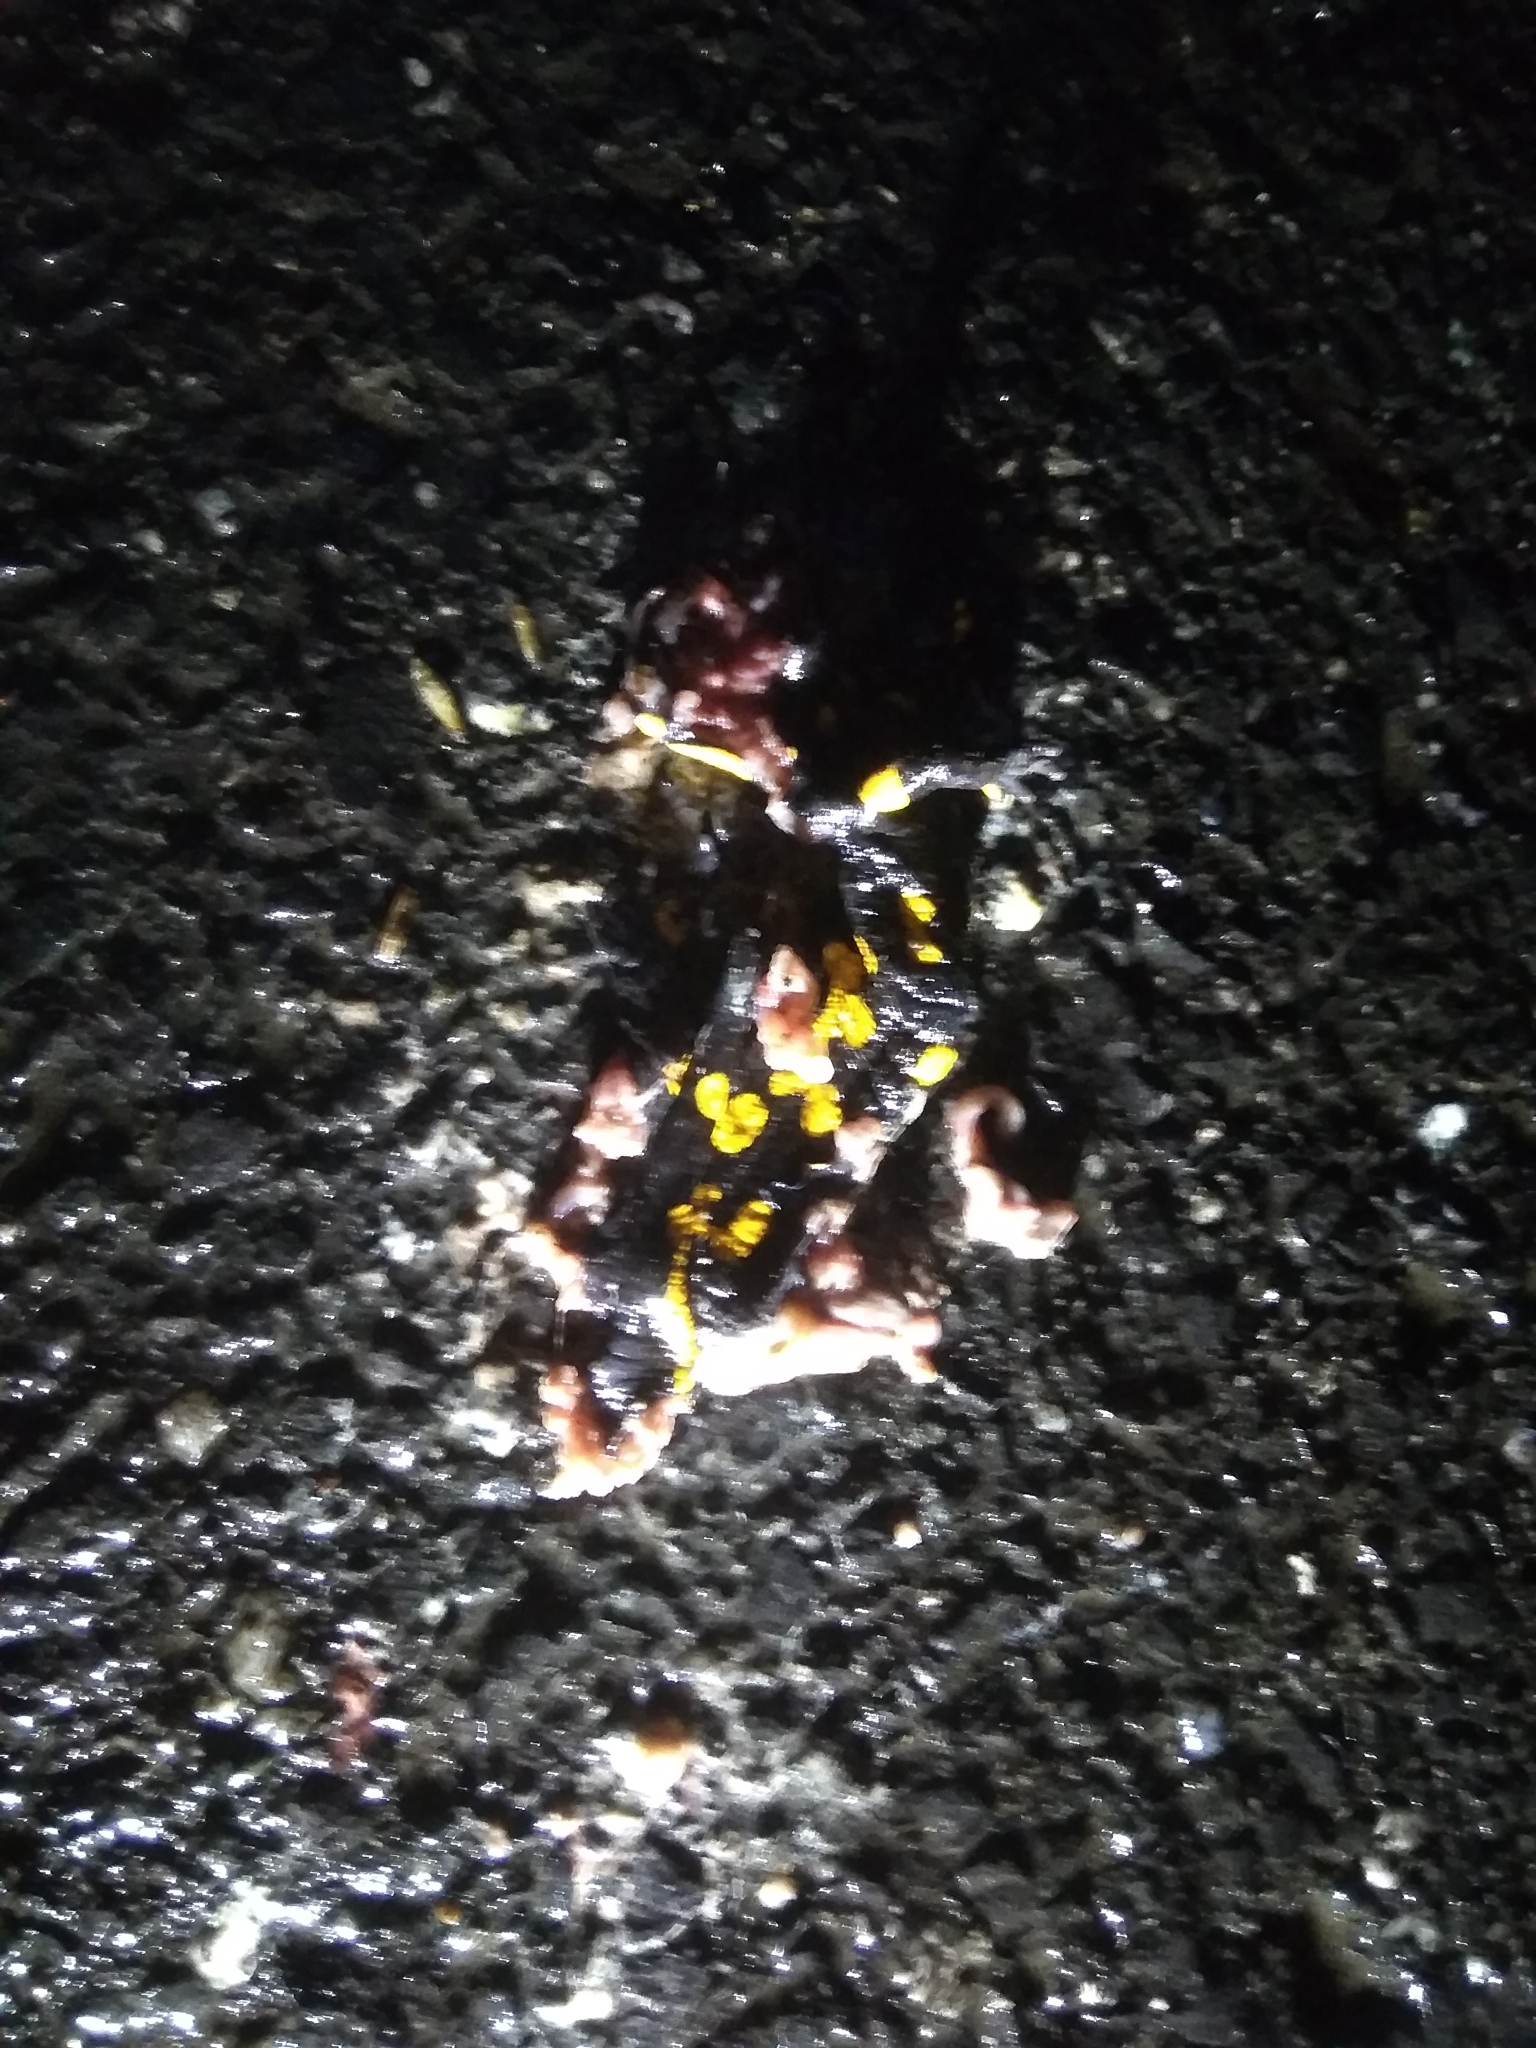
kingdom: Animalia
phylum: Chordata
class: Amphibia
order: Caudata
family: Salamandridae
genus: Salamandra
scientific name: Salamandra salamandra
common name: Fire salamander
